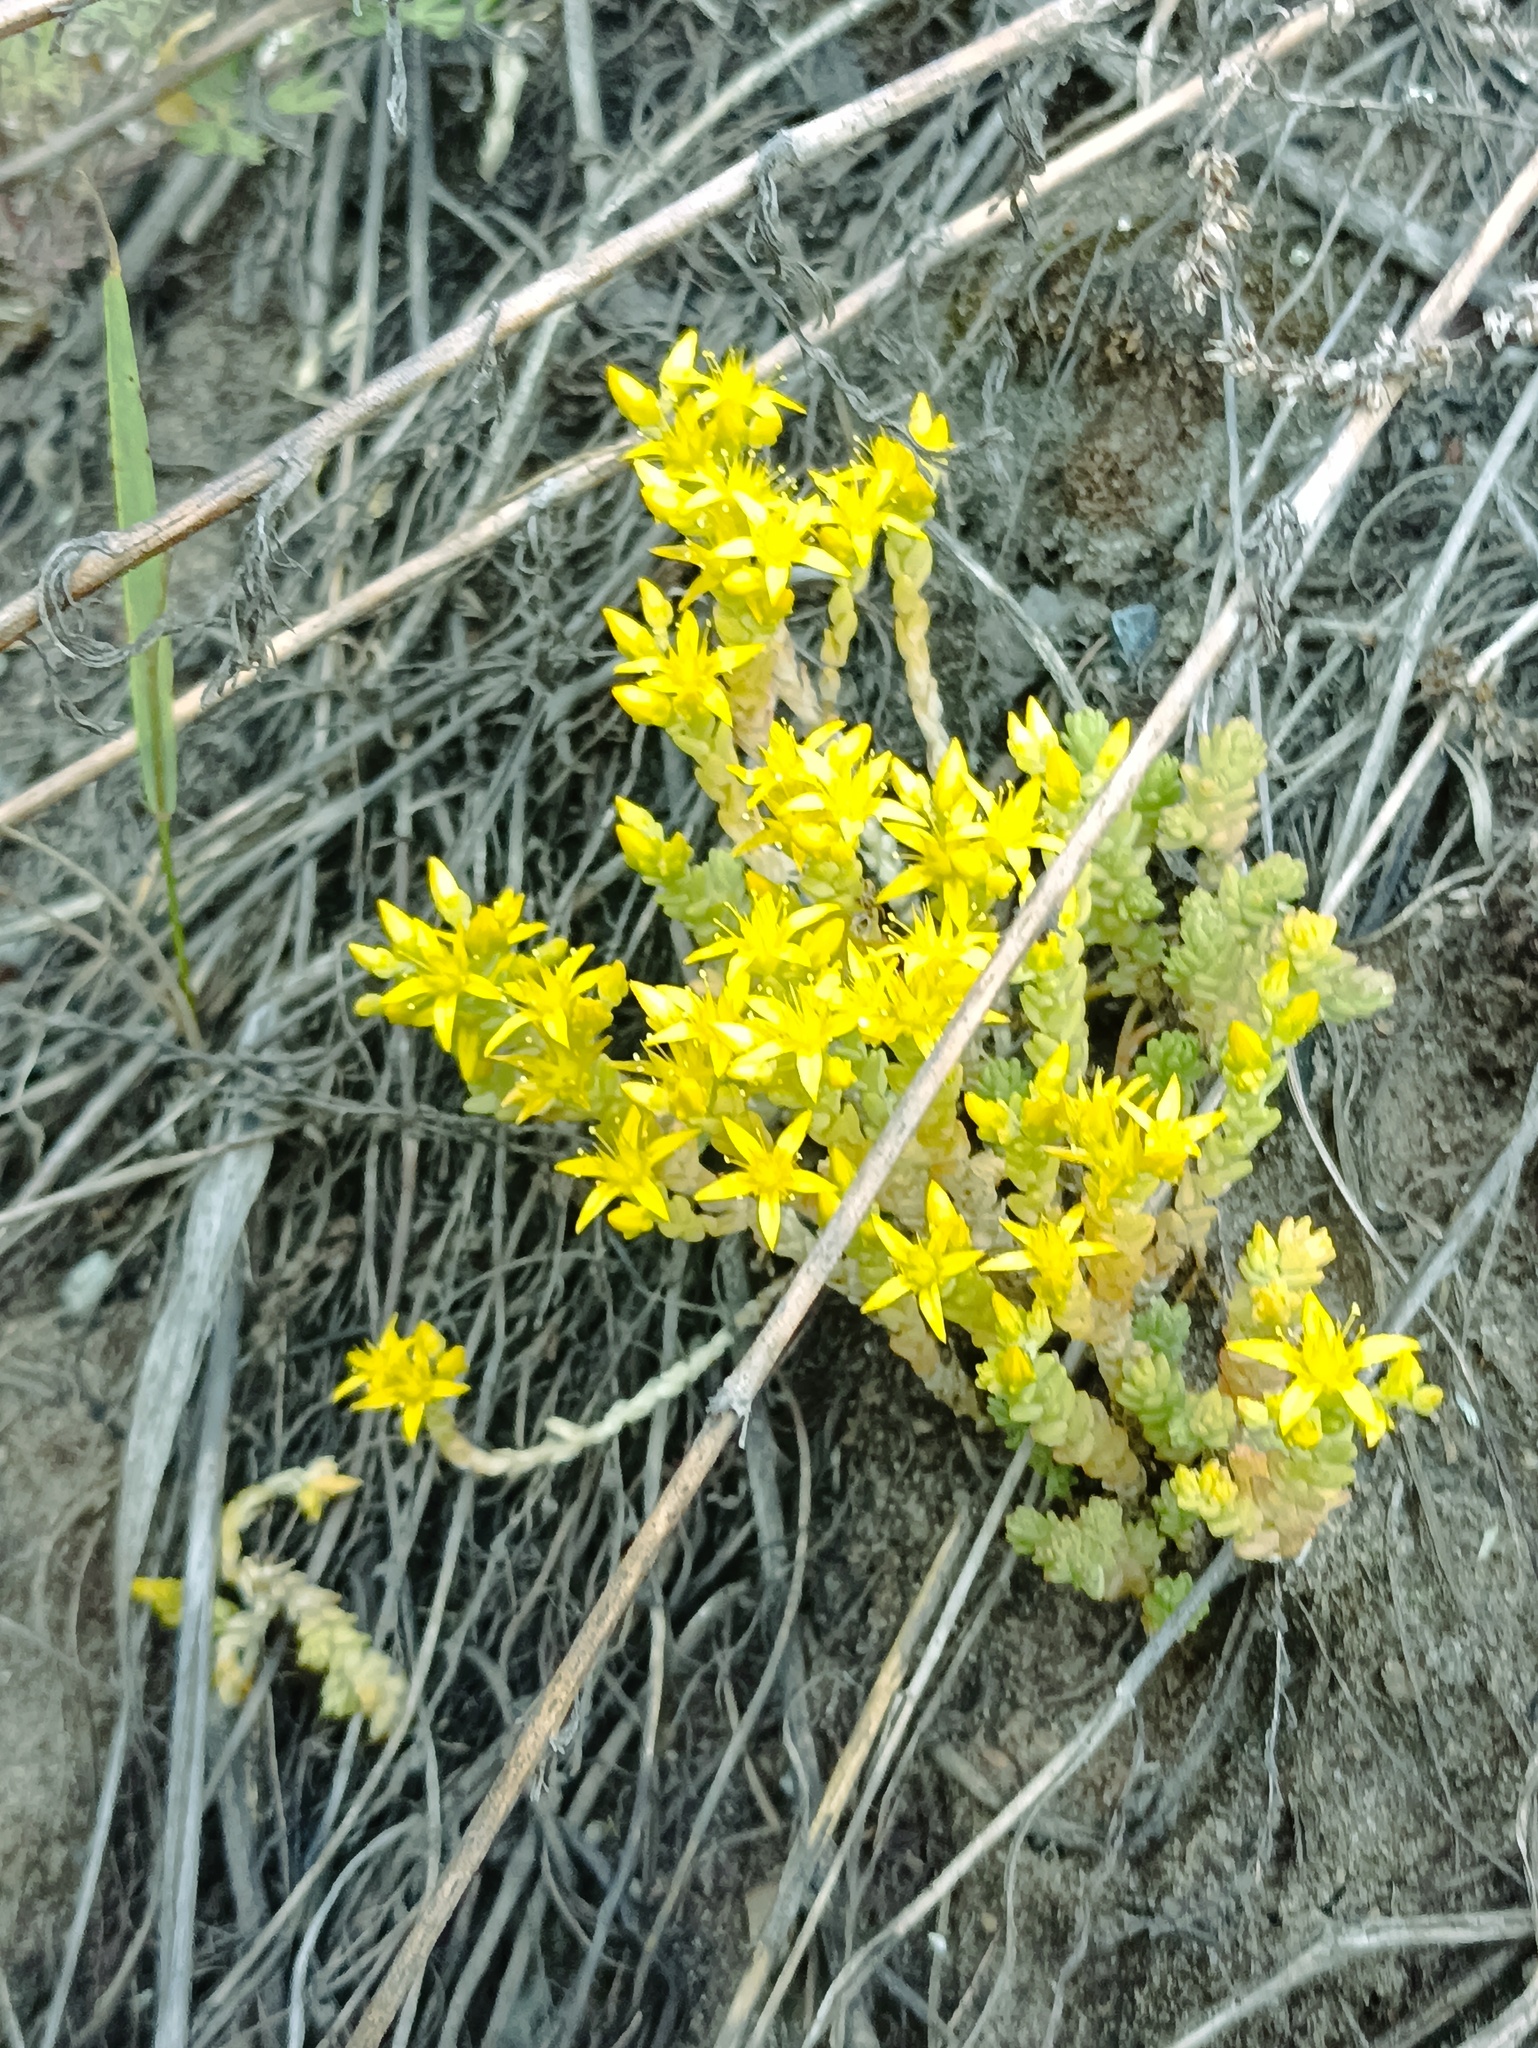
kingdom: Plantae
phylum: Tracheophyta
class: Magnoliopsida
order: Saxifragales
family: Crassulaceae
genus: Sedum
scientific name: Sedum acre
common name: Biting stonecrop
